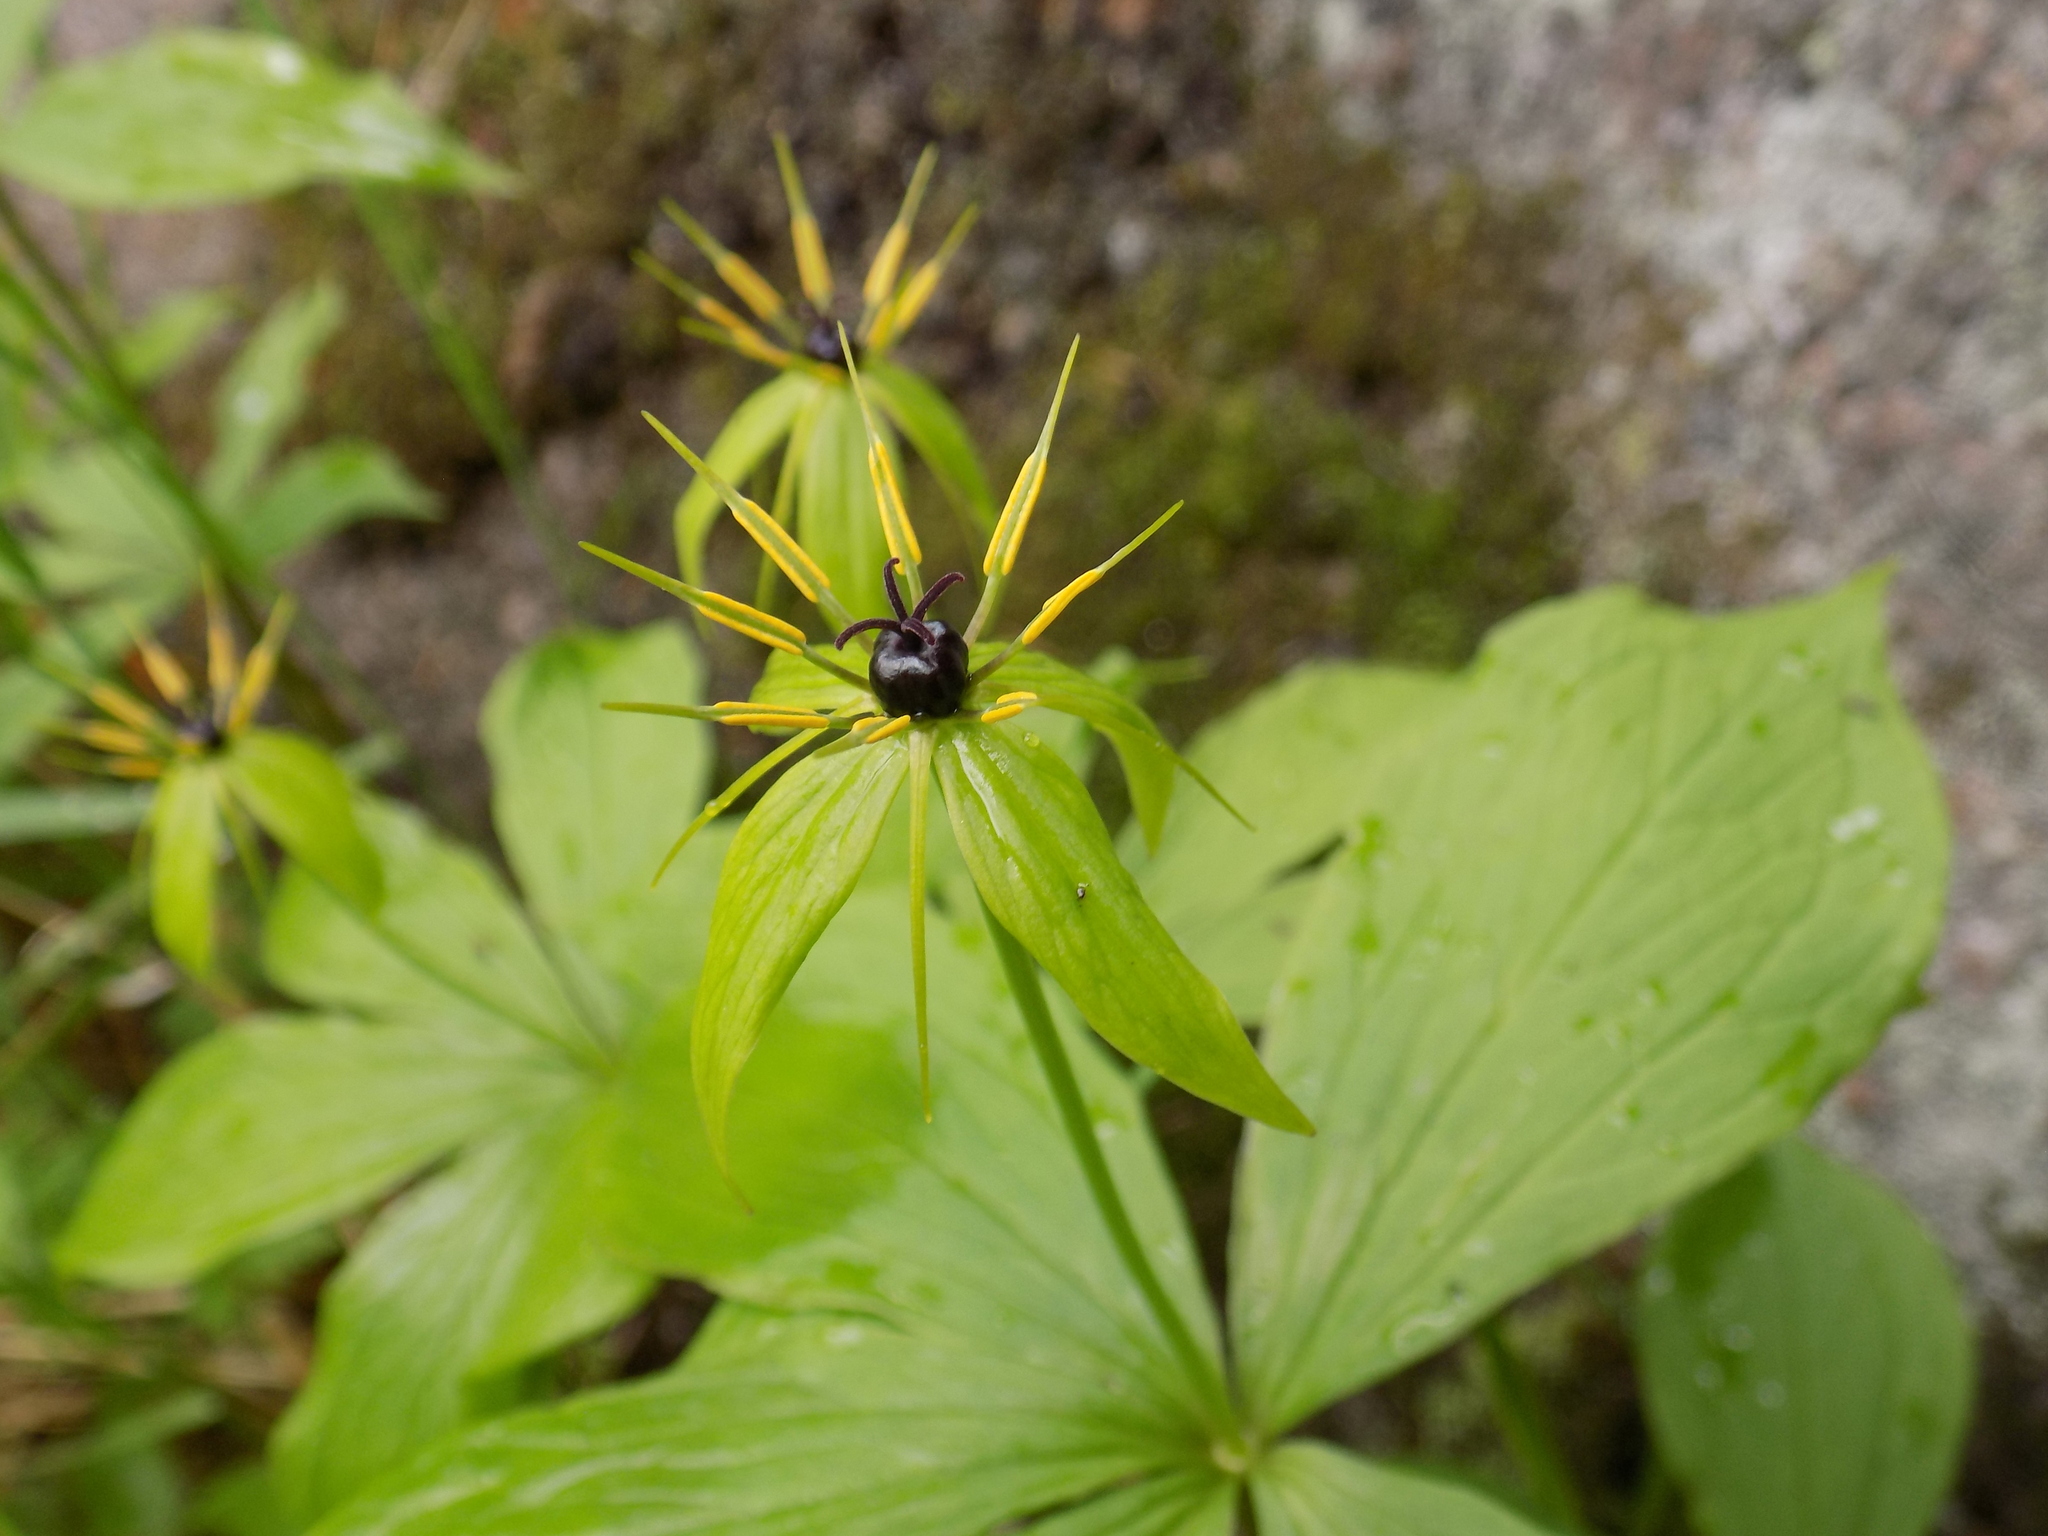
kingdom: Plantae
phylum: Tracheophyta
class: Liliopsida
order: Liliales
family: Melanthiaceae
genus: Paris
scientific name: Paris quadrifolia
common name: Herb-paris
